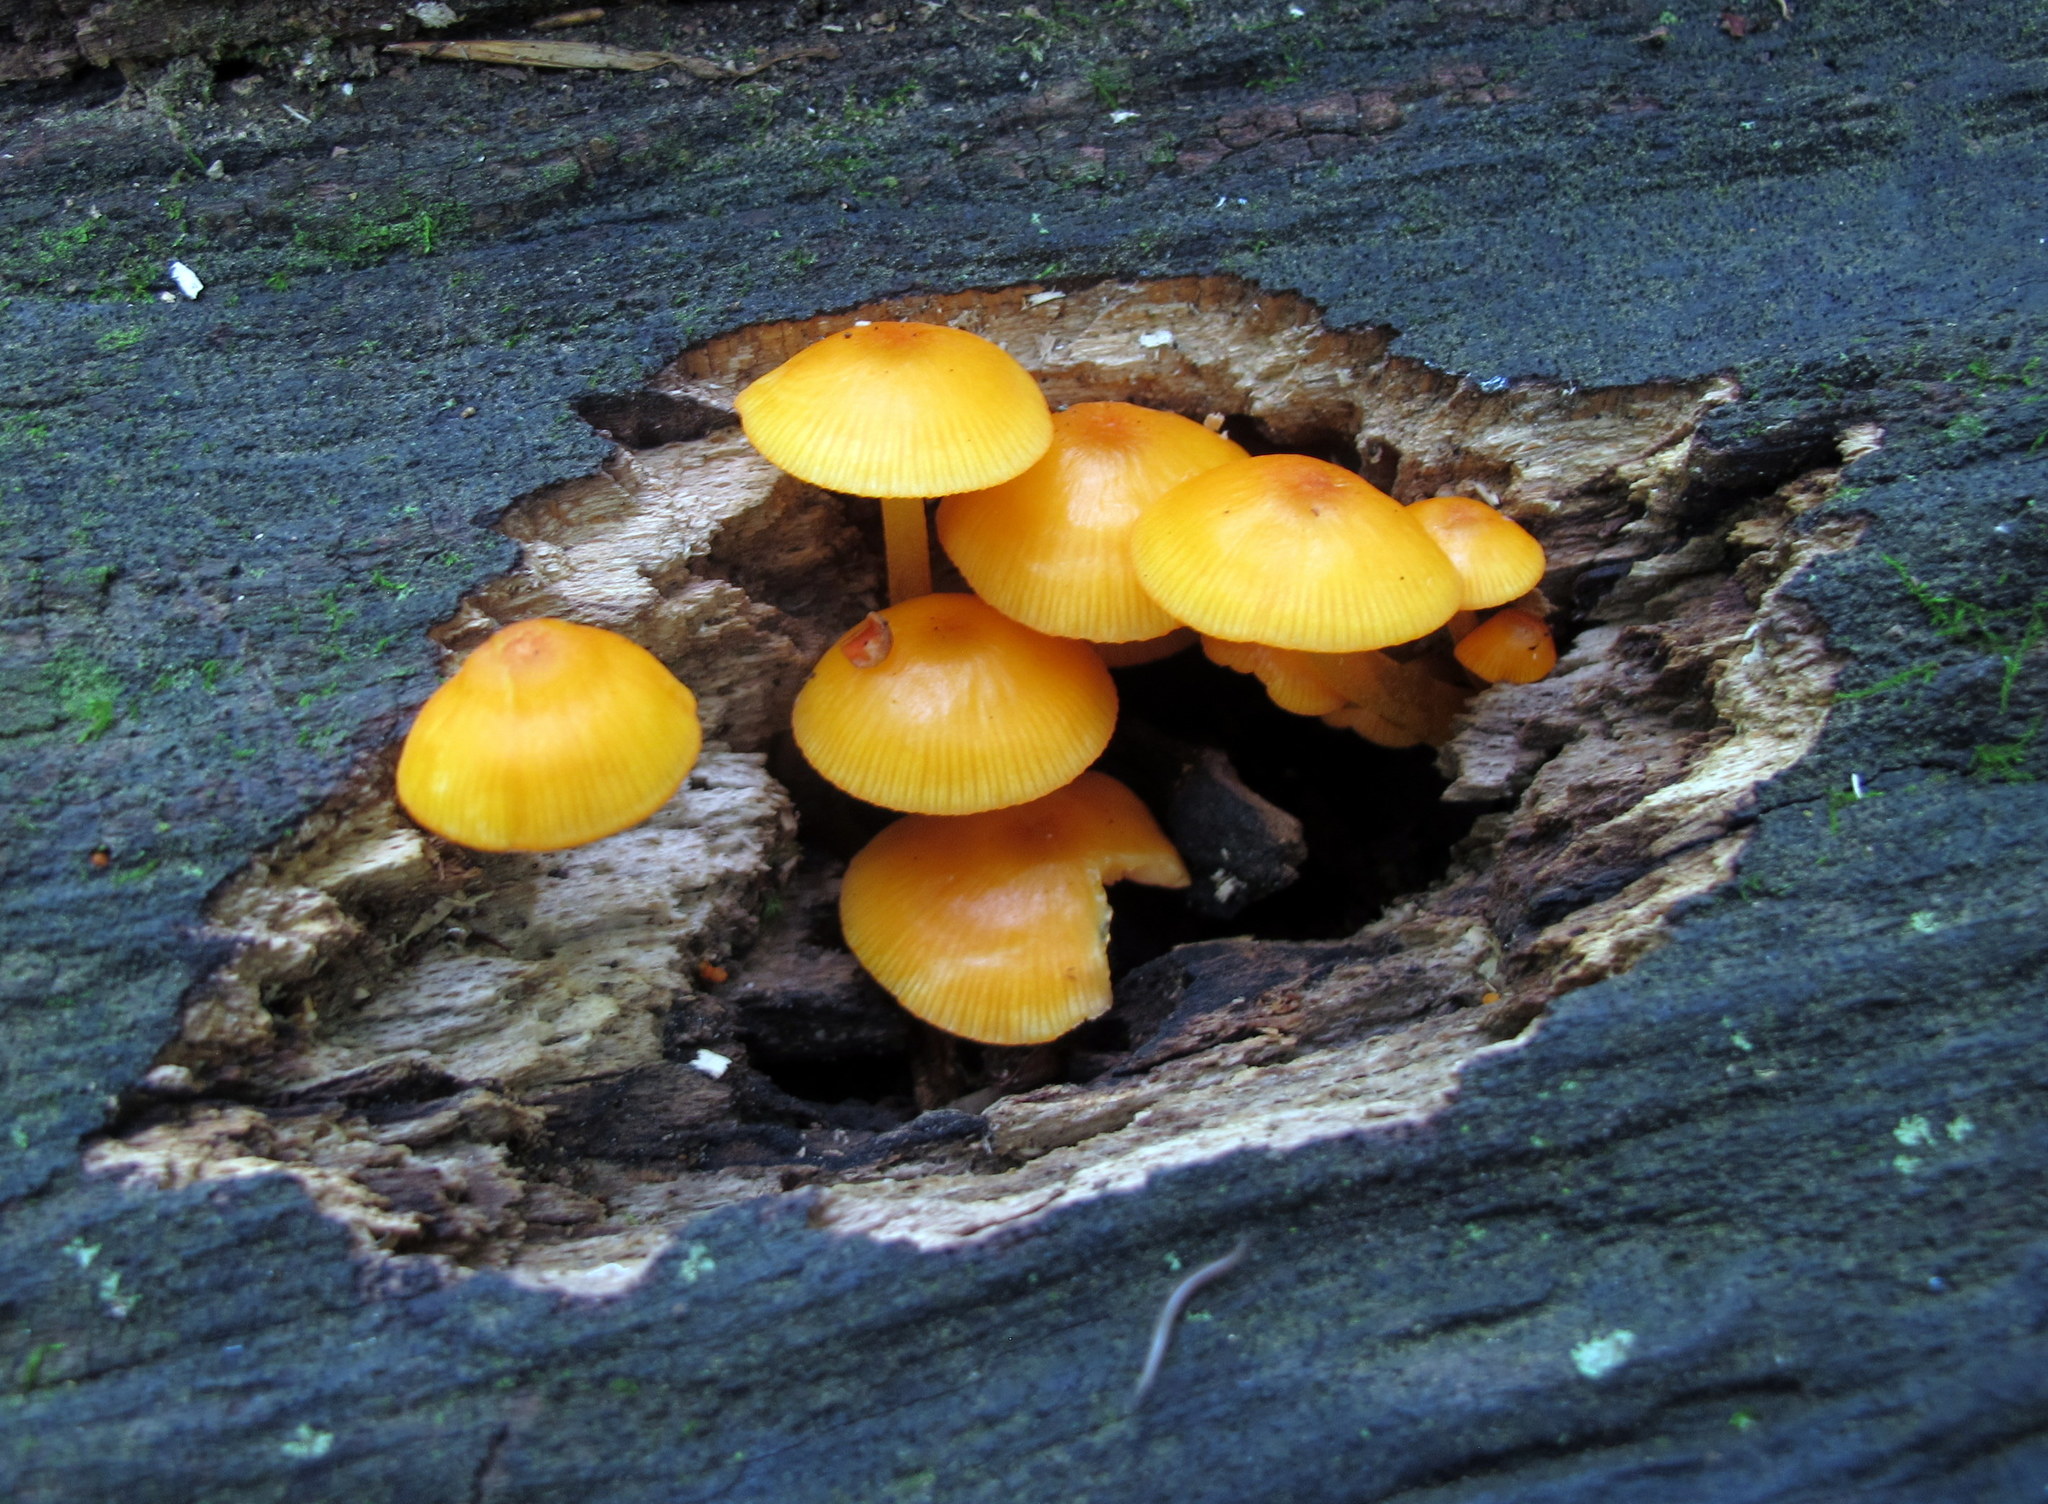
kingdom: Fungi
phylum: Basidiomycota
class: Agaricomycetes
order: Agaricales
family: Mycenaceae
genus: Mycena
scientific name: Mycena leaiana
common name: Orange mycena
